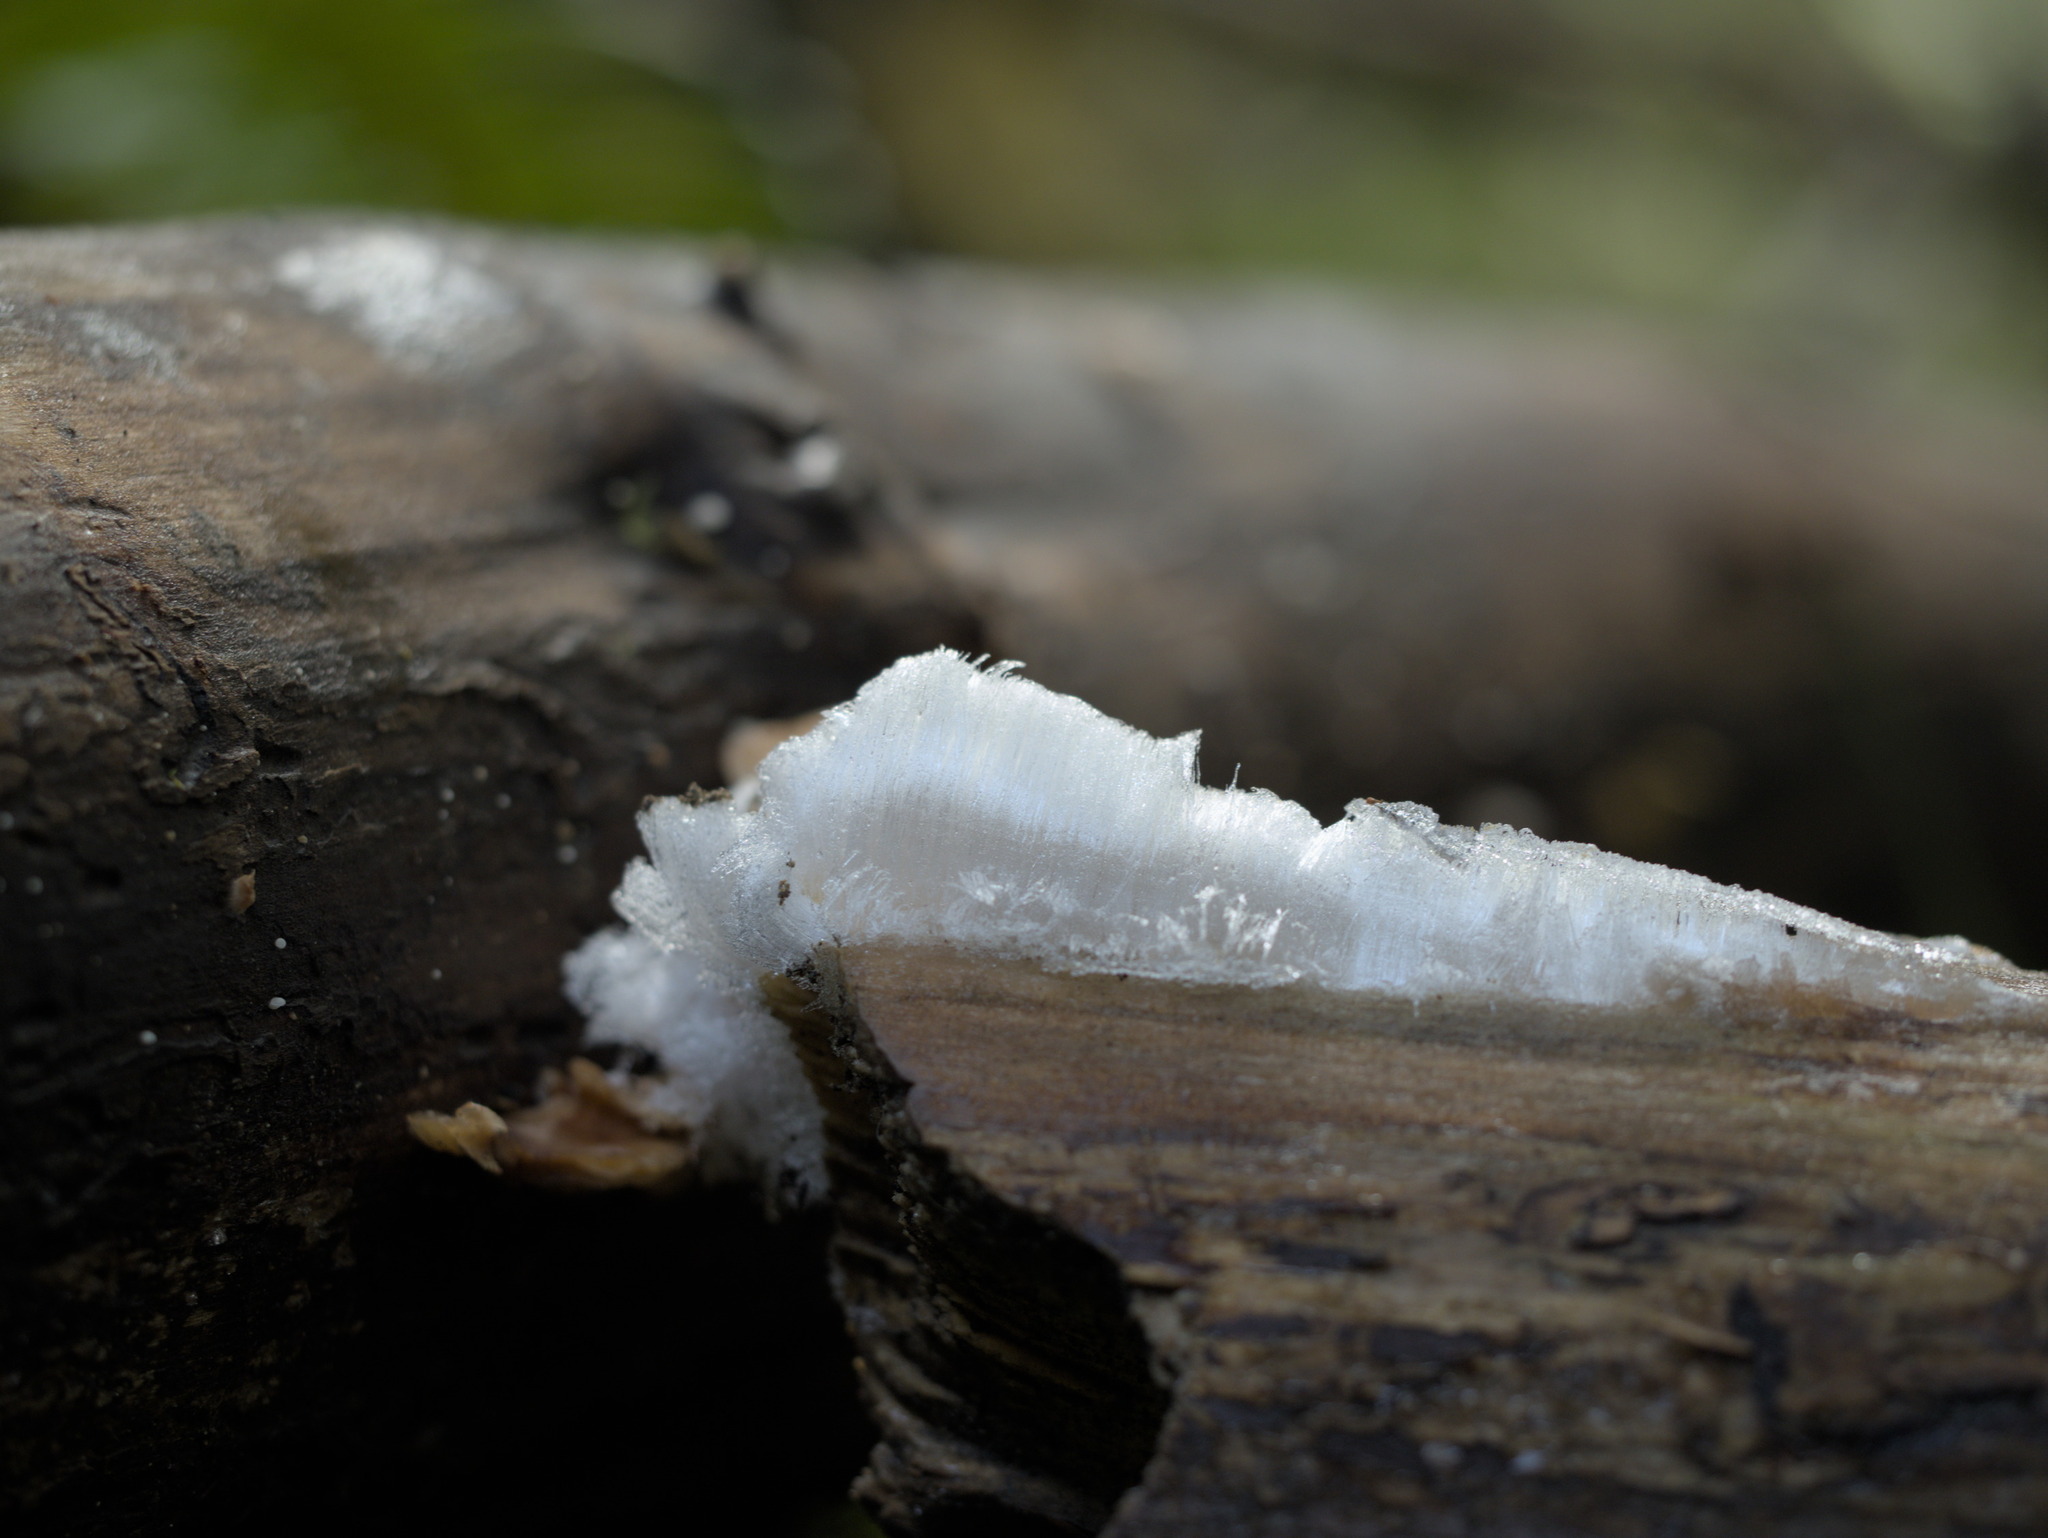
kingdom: Fungi
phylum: Basidiomycota
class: Agaricomycetes
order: Auriculariales
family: Auriculariaceae
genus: Exidiopsis
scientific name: Exidiopsis effusa
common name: Hair ice crust
